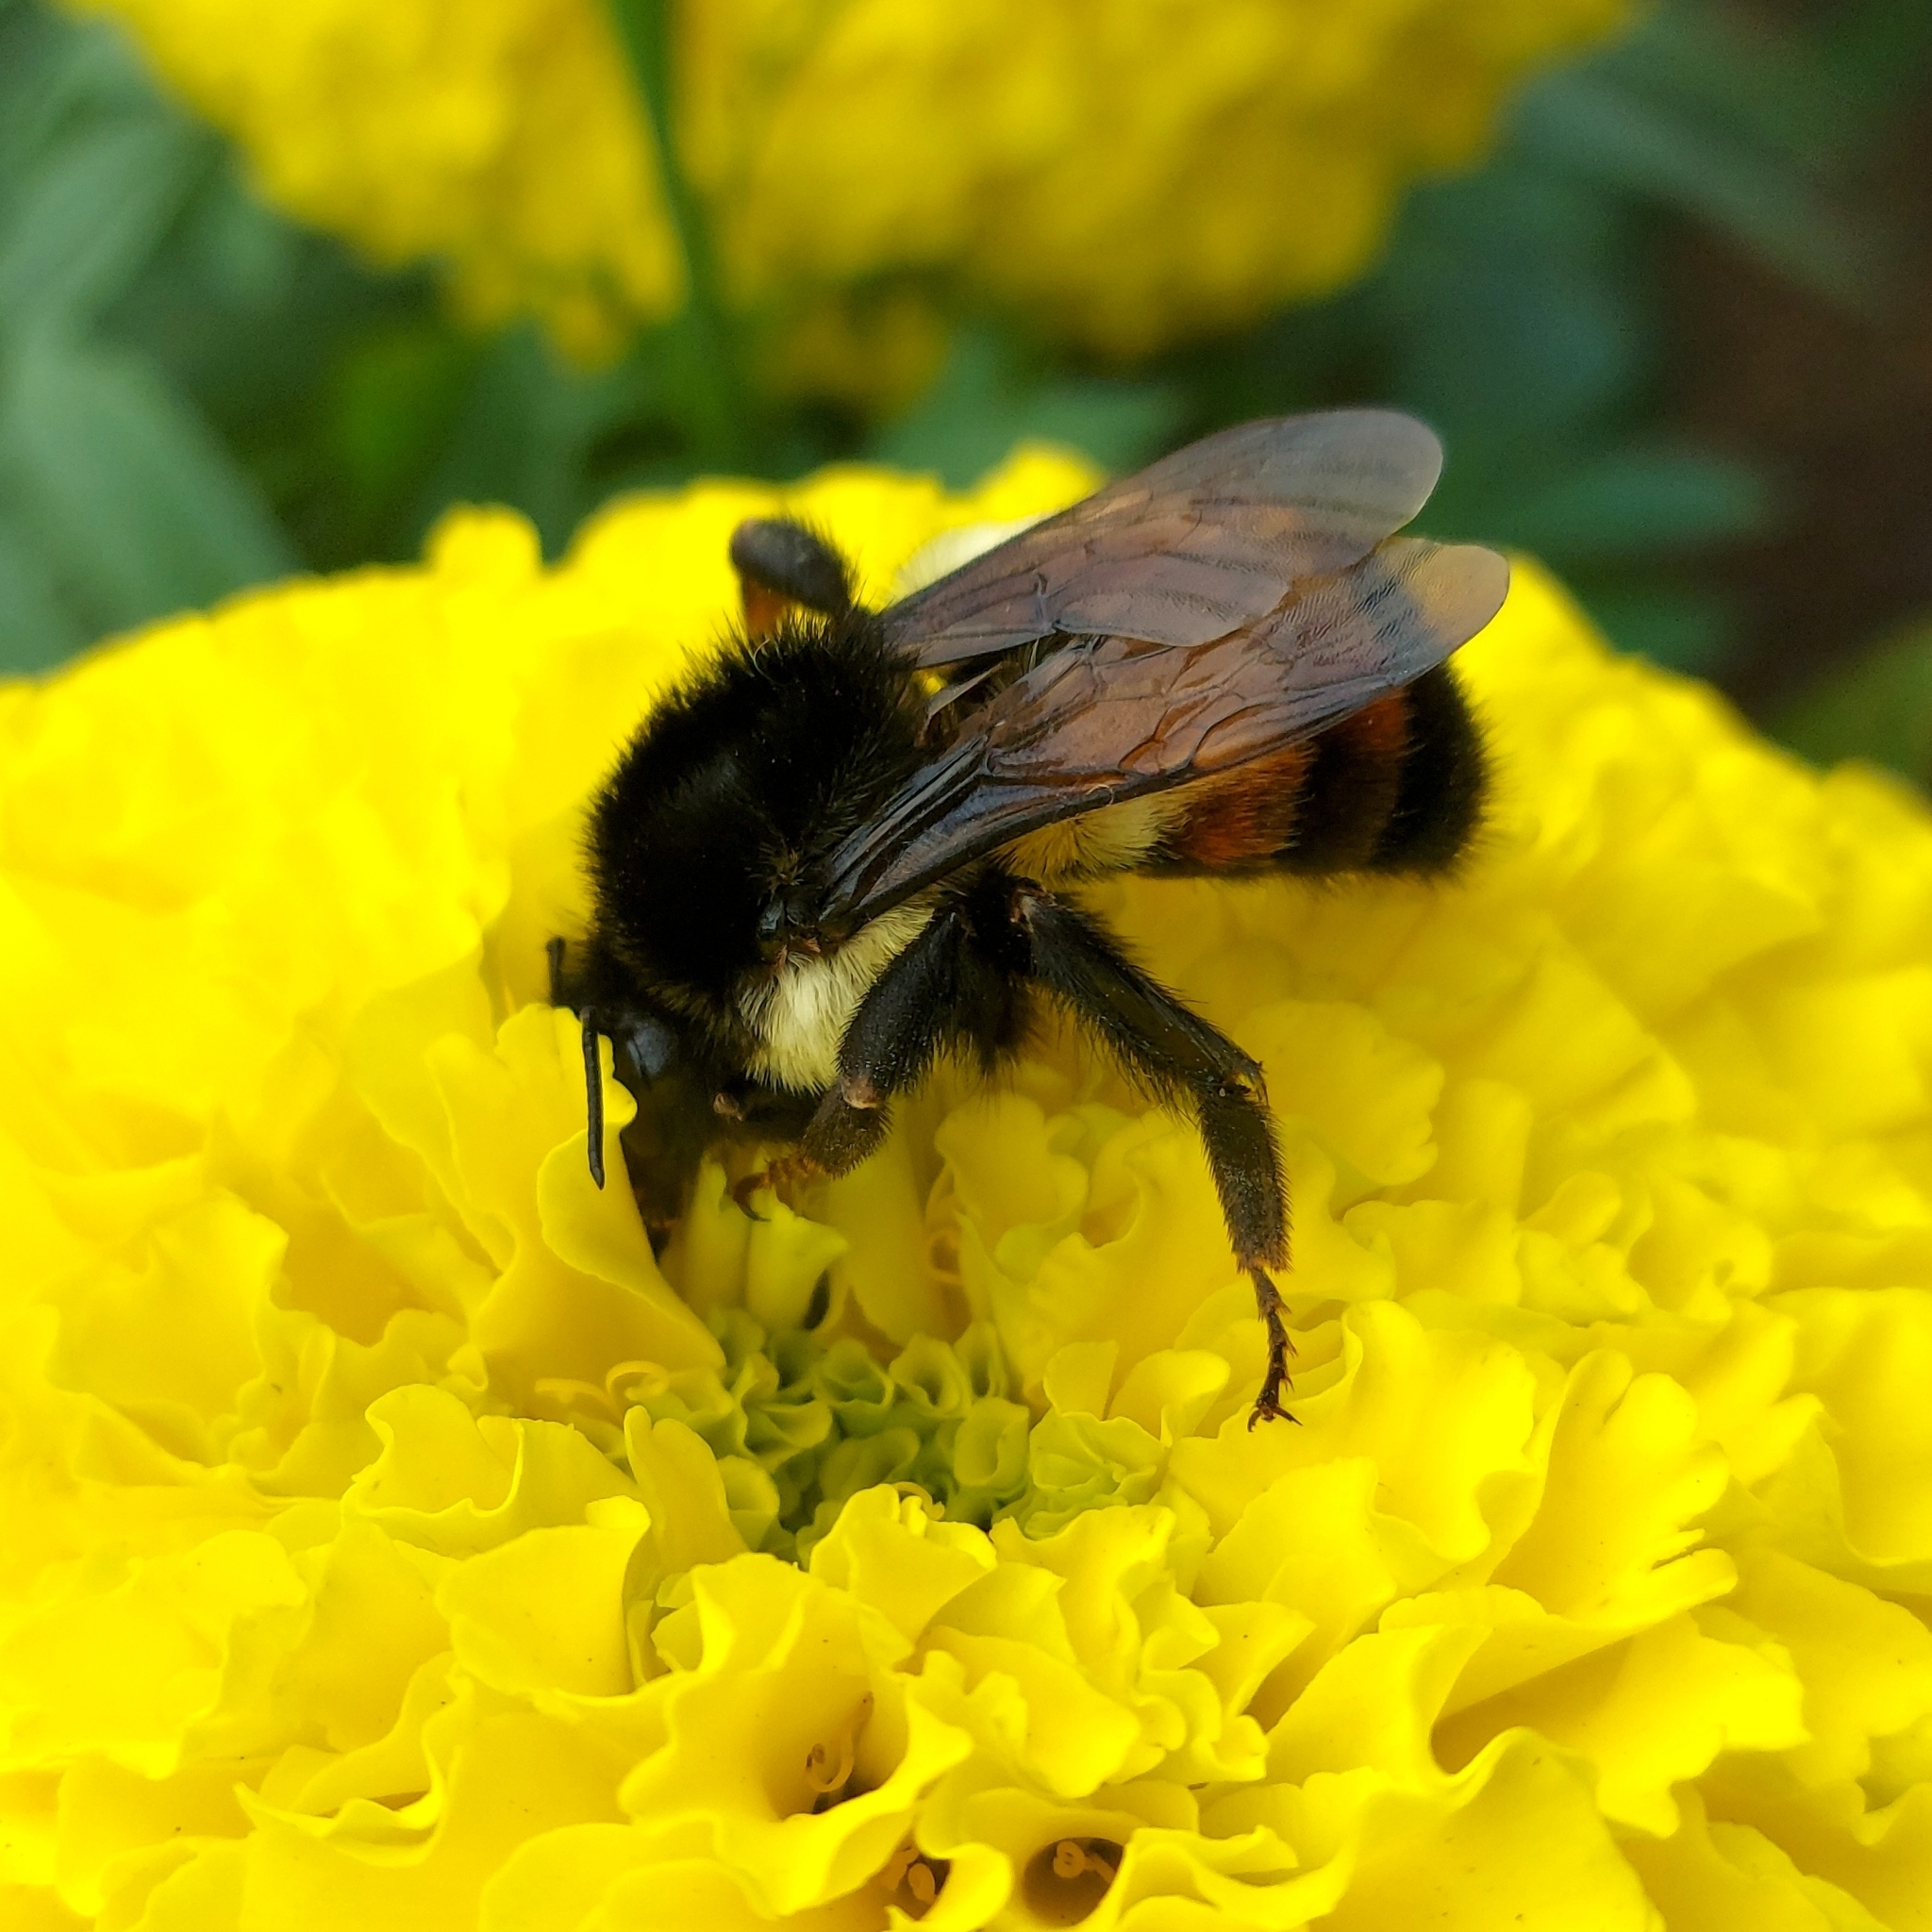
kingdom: Animalia
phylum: Arthropoda
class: Insecta
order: Hymenoptera
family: Apidae
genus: Bombus
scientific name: Bombus ephippiatus
